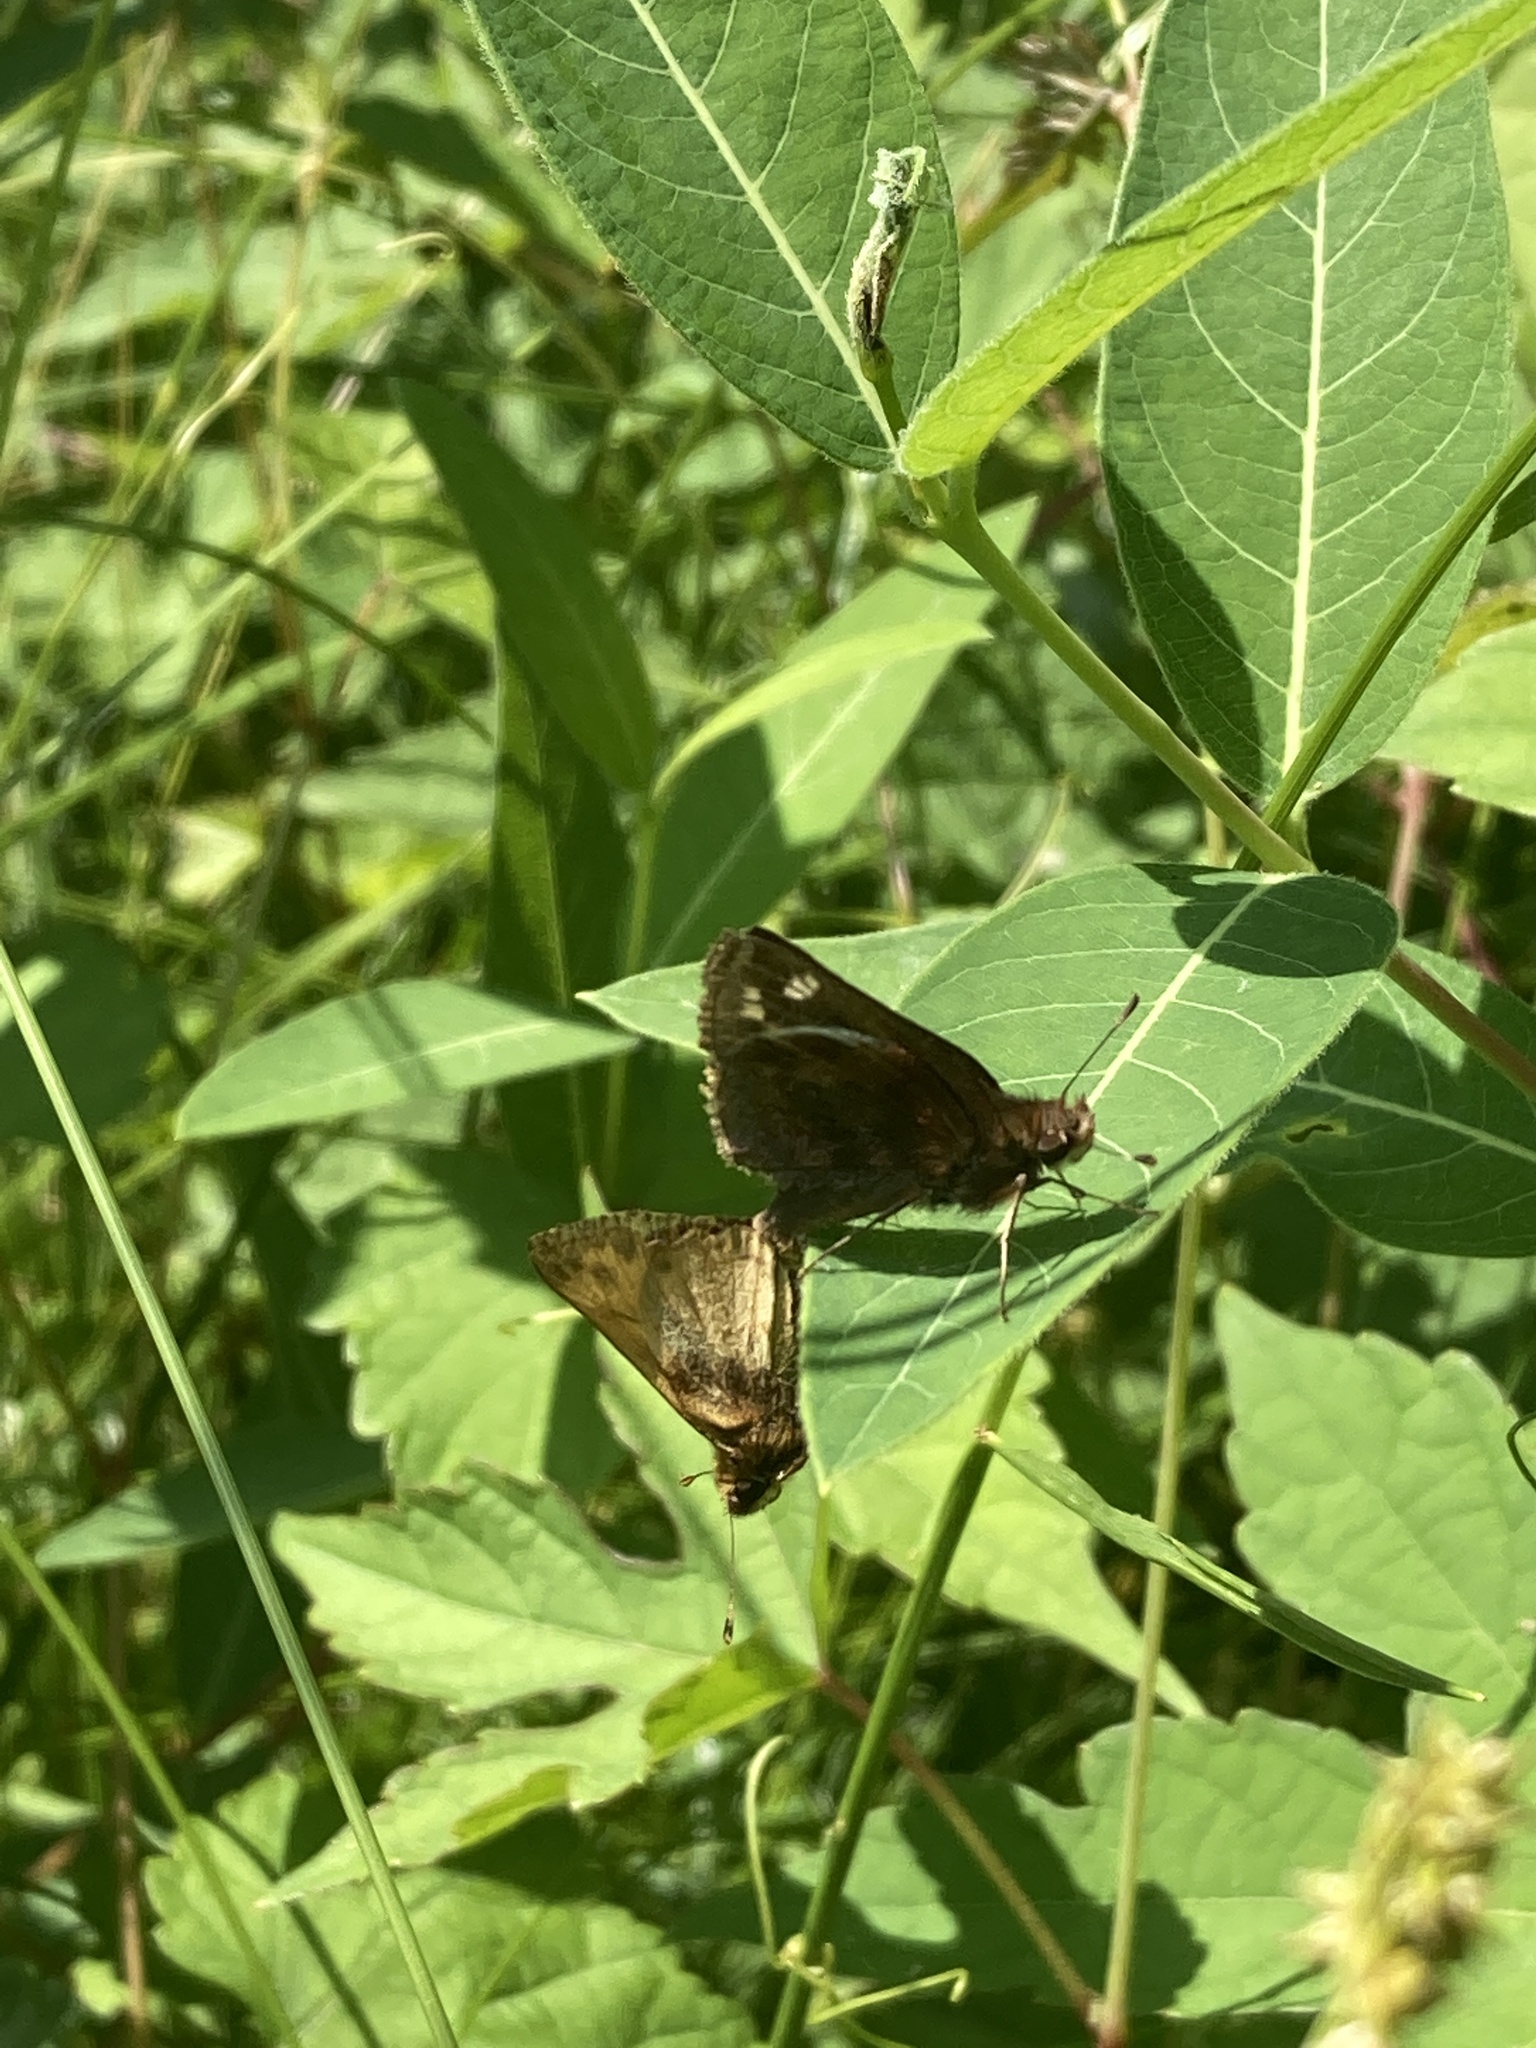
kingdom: Animalia
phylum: Arthropoda
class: Insecta
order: Lepidoptera
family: Hesperiidae
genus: Lon
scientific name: Lon zabulon
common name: Zabulon skipper
